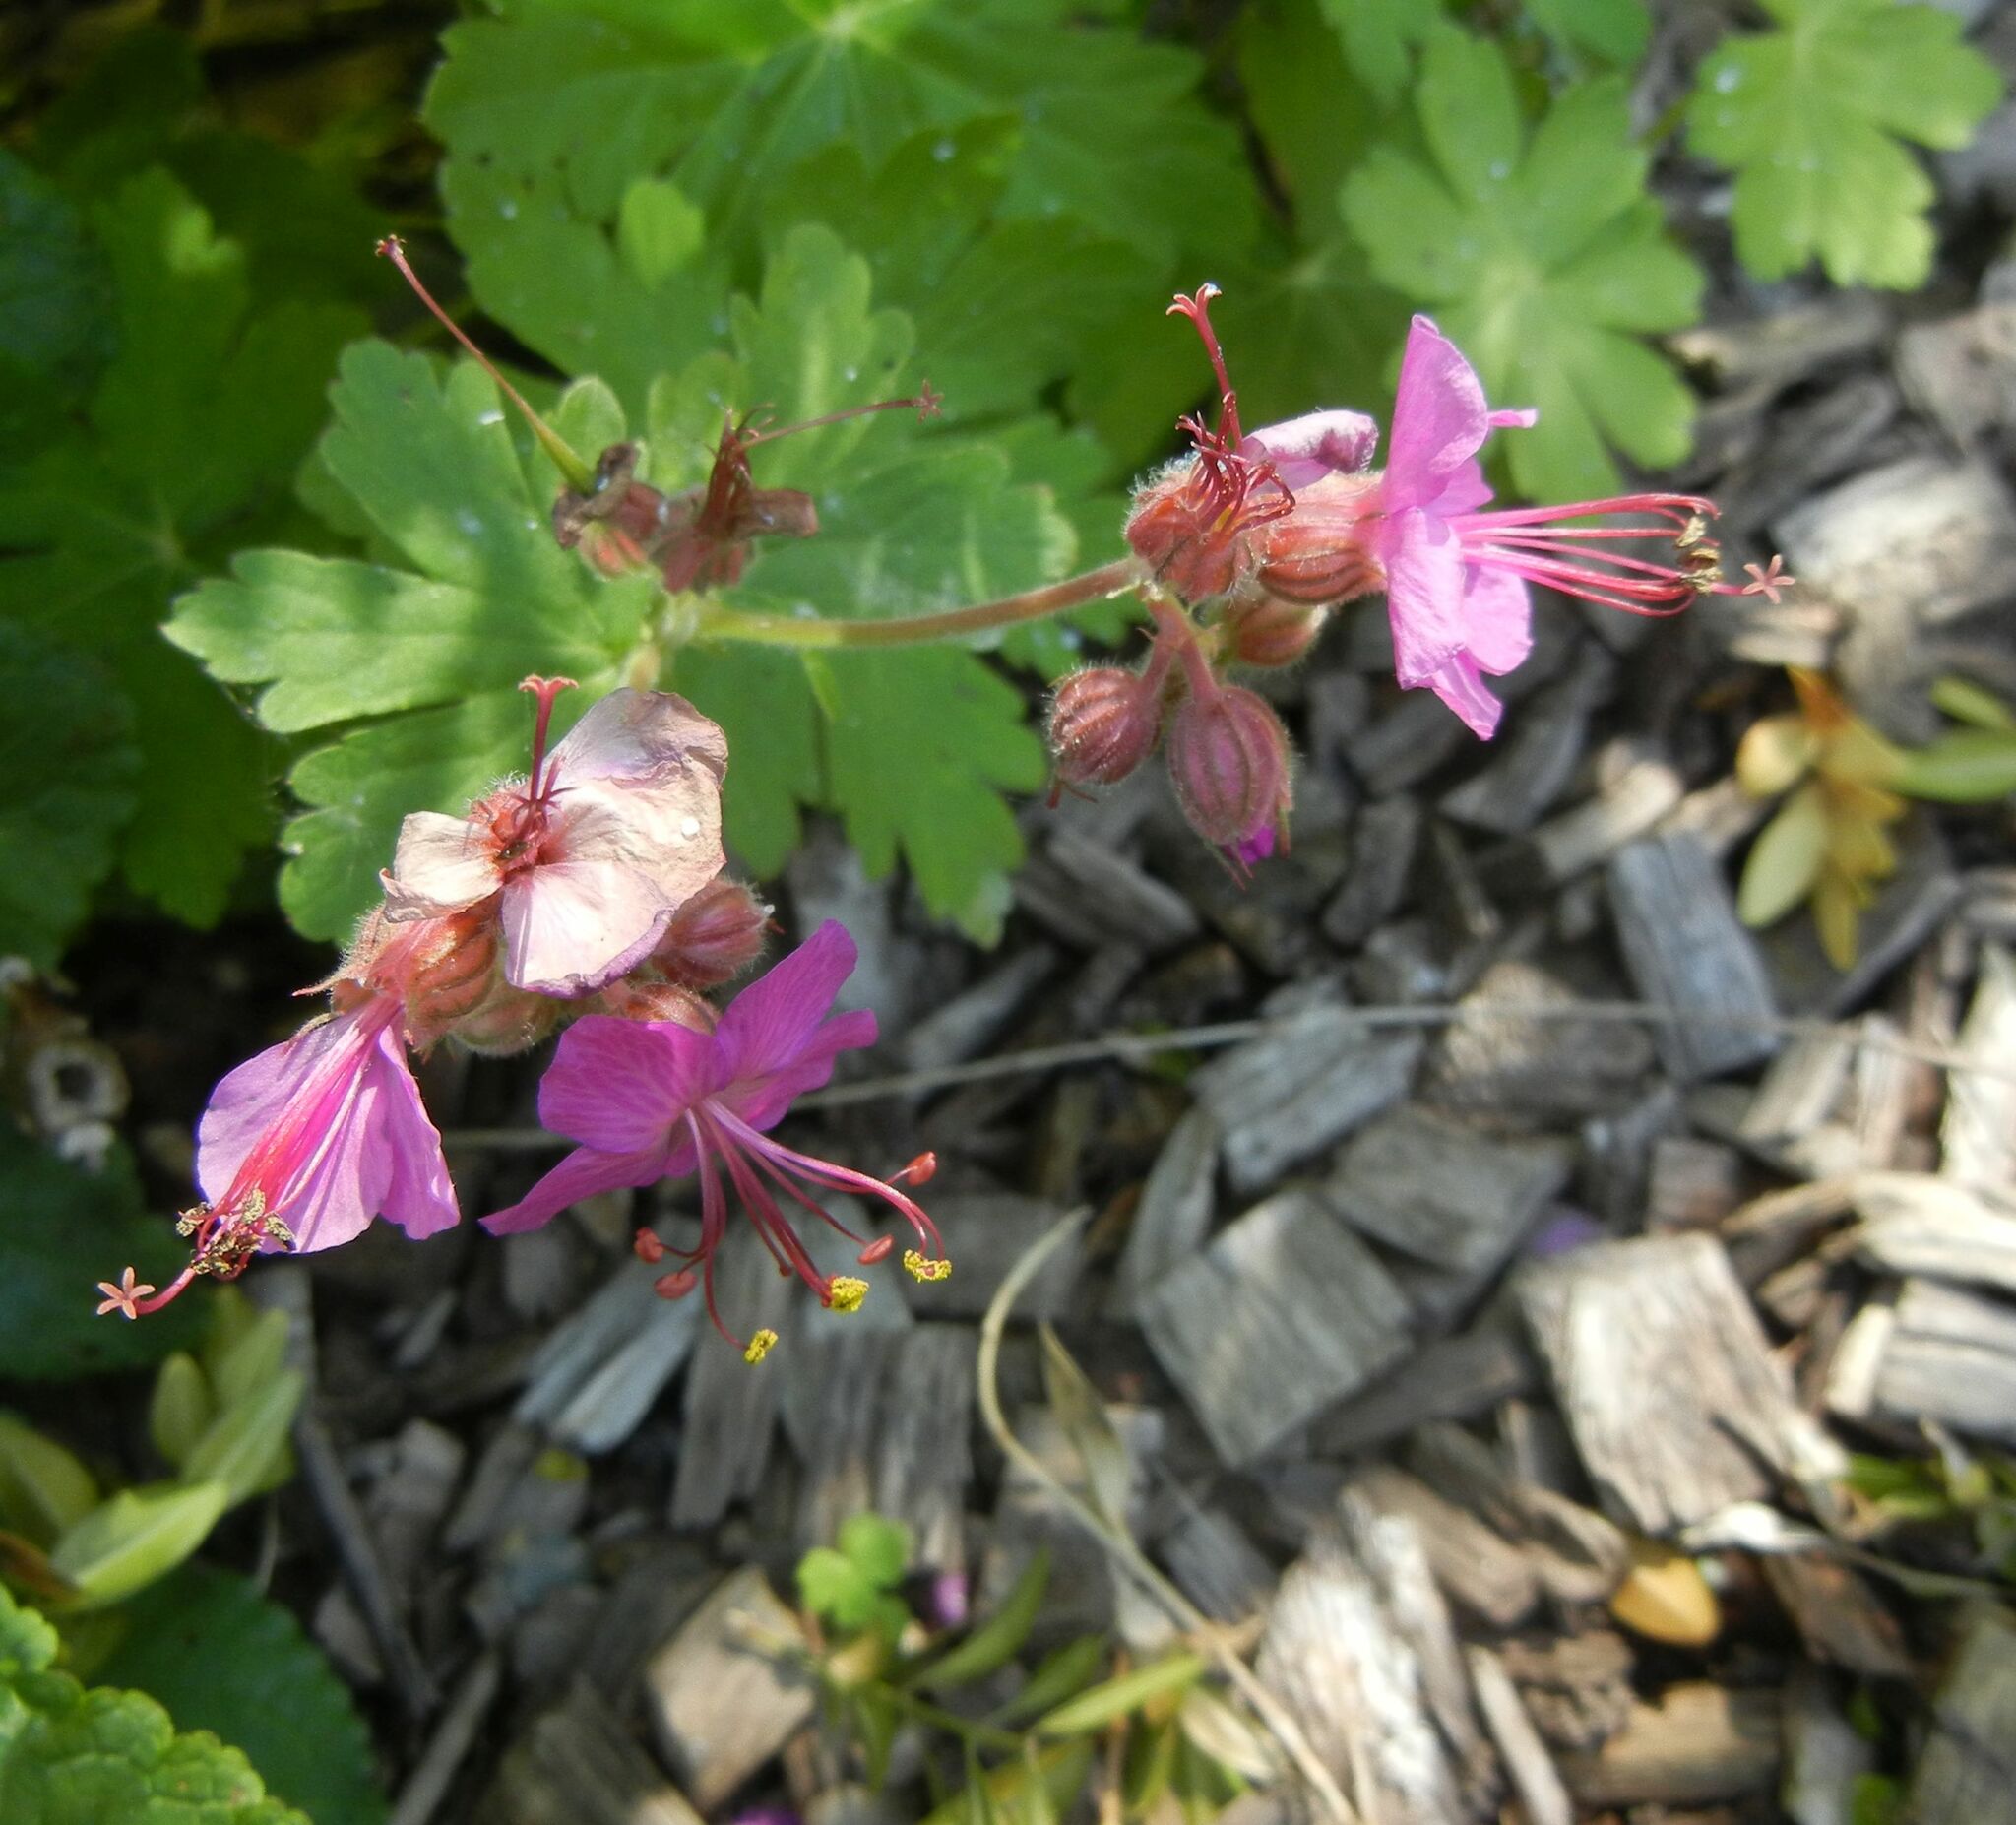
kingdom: Plantae
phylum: Tracheophyta
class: Magnoliopsida
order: Geraniales
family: Geraniaceae
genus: Geranium
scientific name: Geranium macrorrhizum
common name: Rock crane's-bill
